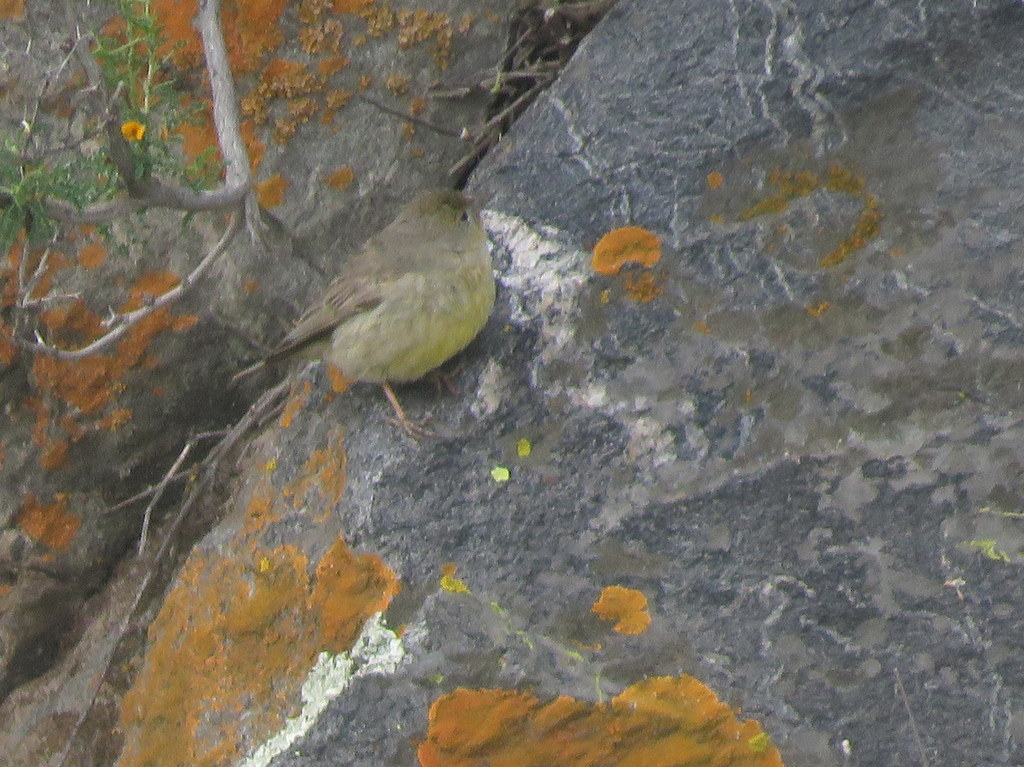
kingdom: Animalia
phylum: Chordata
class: Aves
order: Passeriformes
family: Thraupidae
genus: Sicalis
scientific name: Sicalis olivascens
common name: Greenish yellow finch
